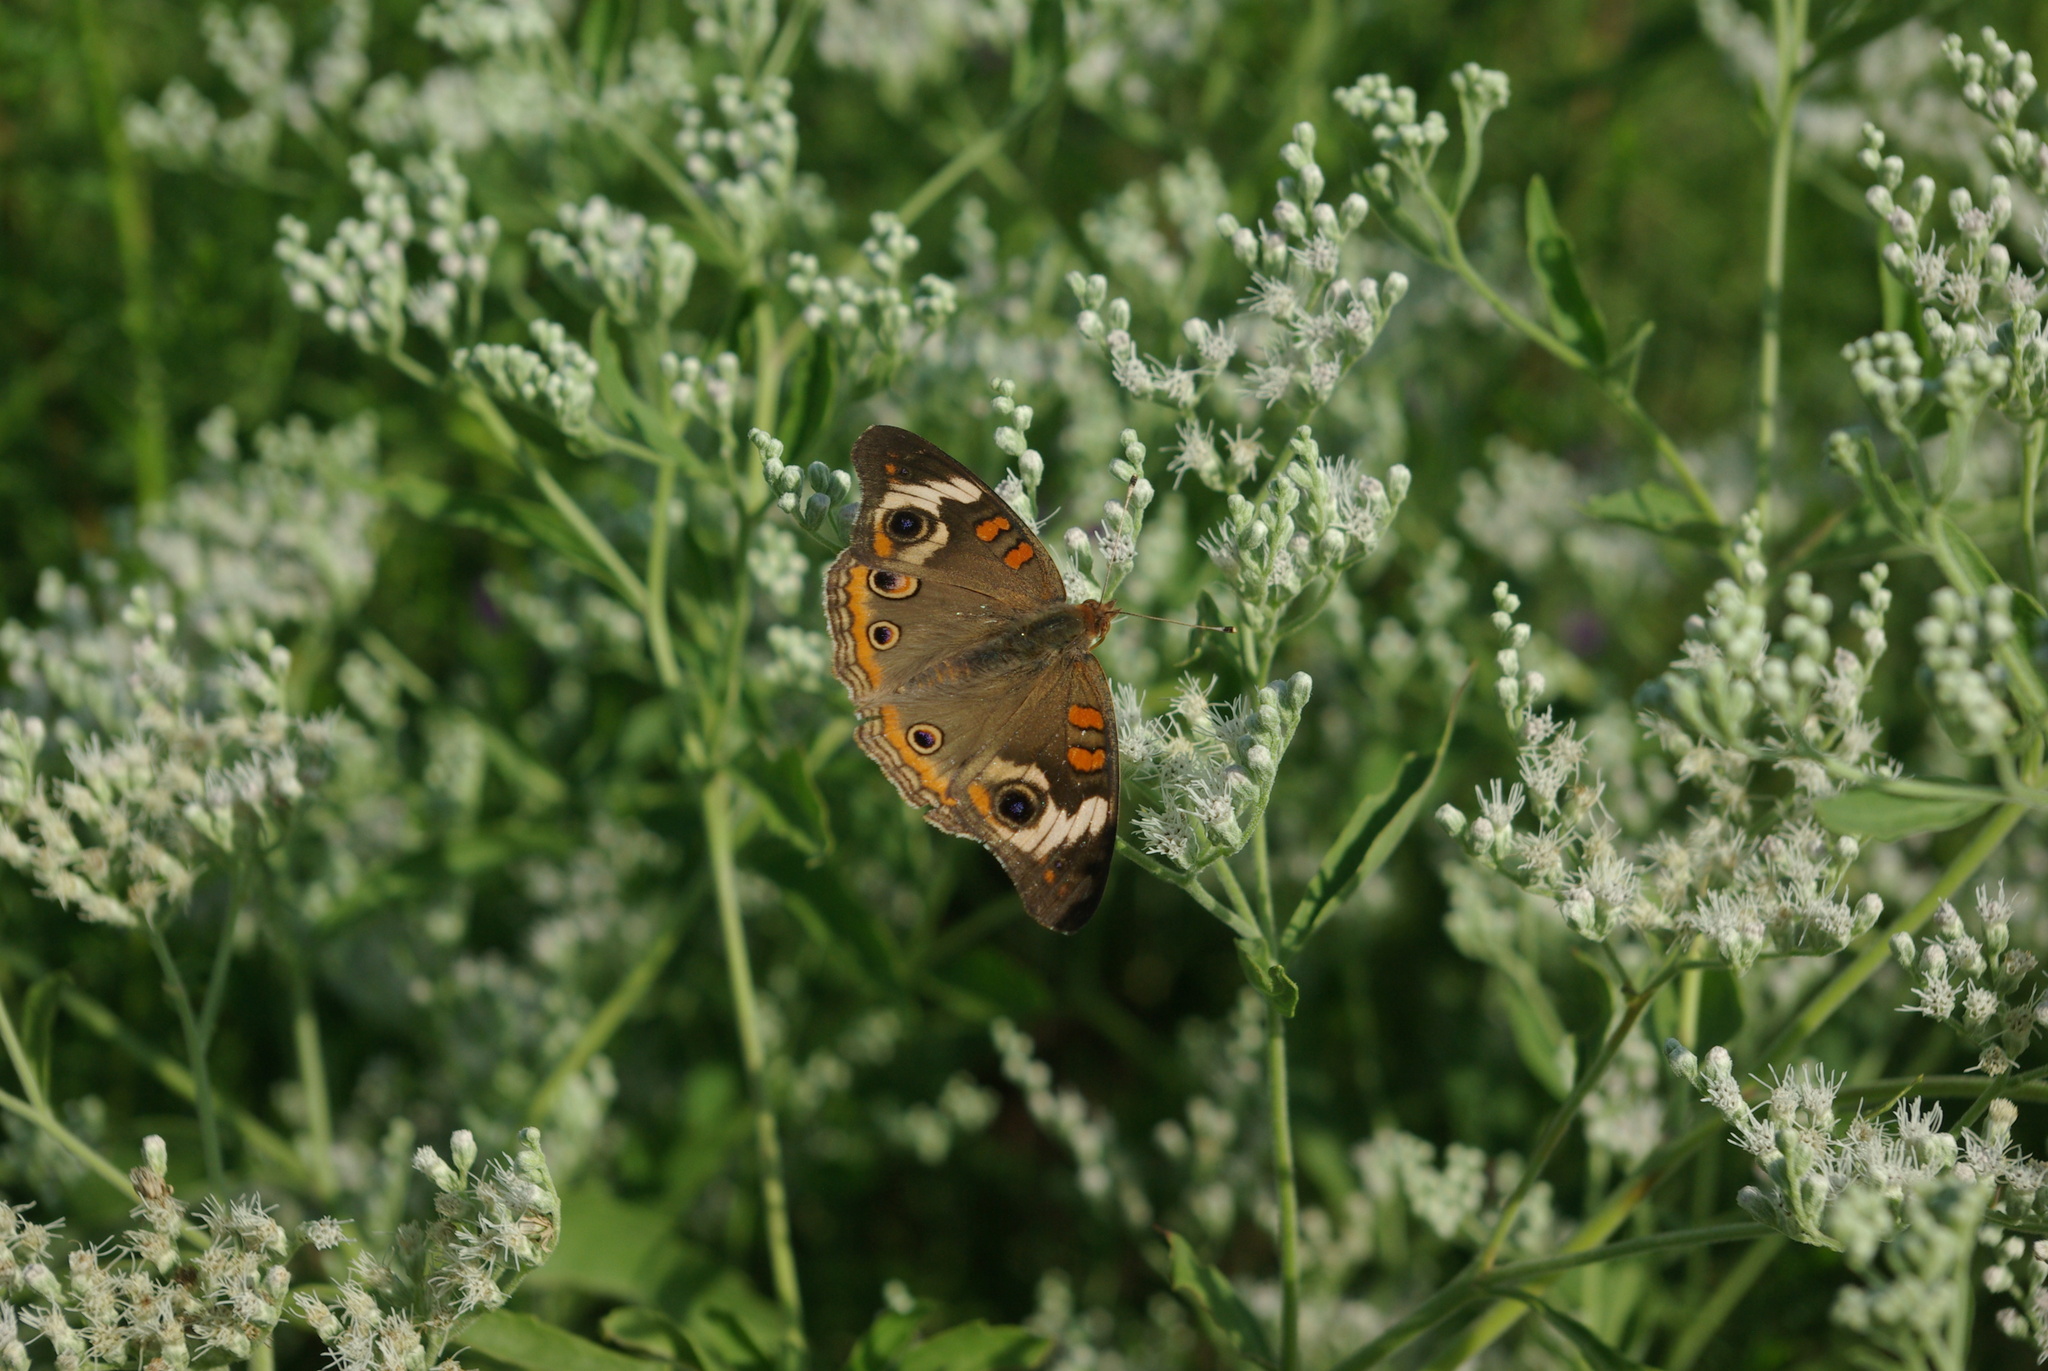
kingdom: Animalia
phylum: Arthropoda
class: Insecta
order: Lepidoptera
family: Nymphalidae
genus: Junonia
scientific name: Junonia coenia
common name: Common buckeye
